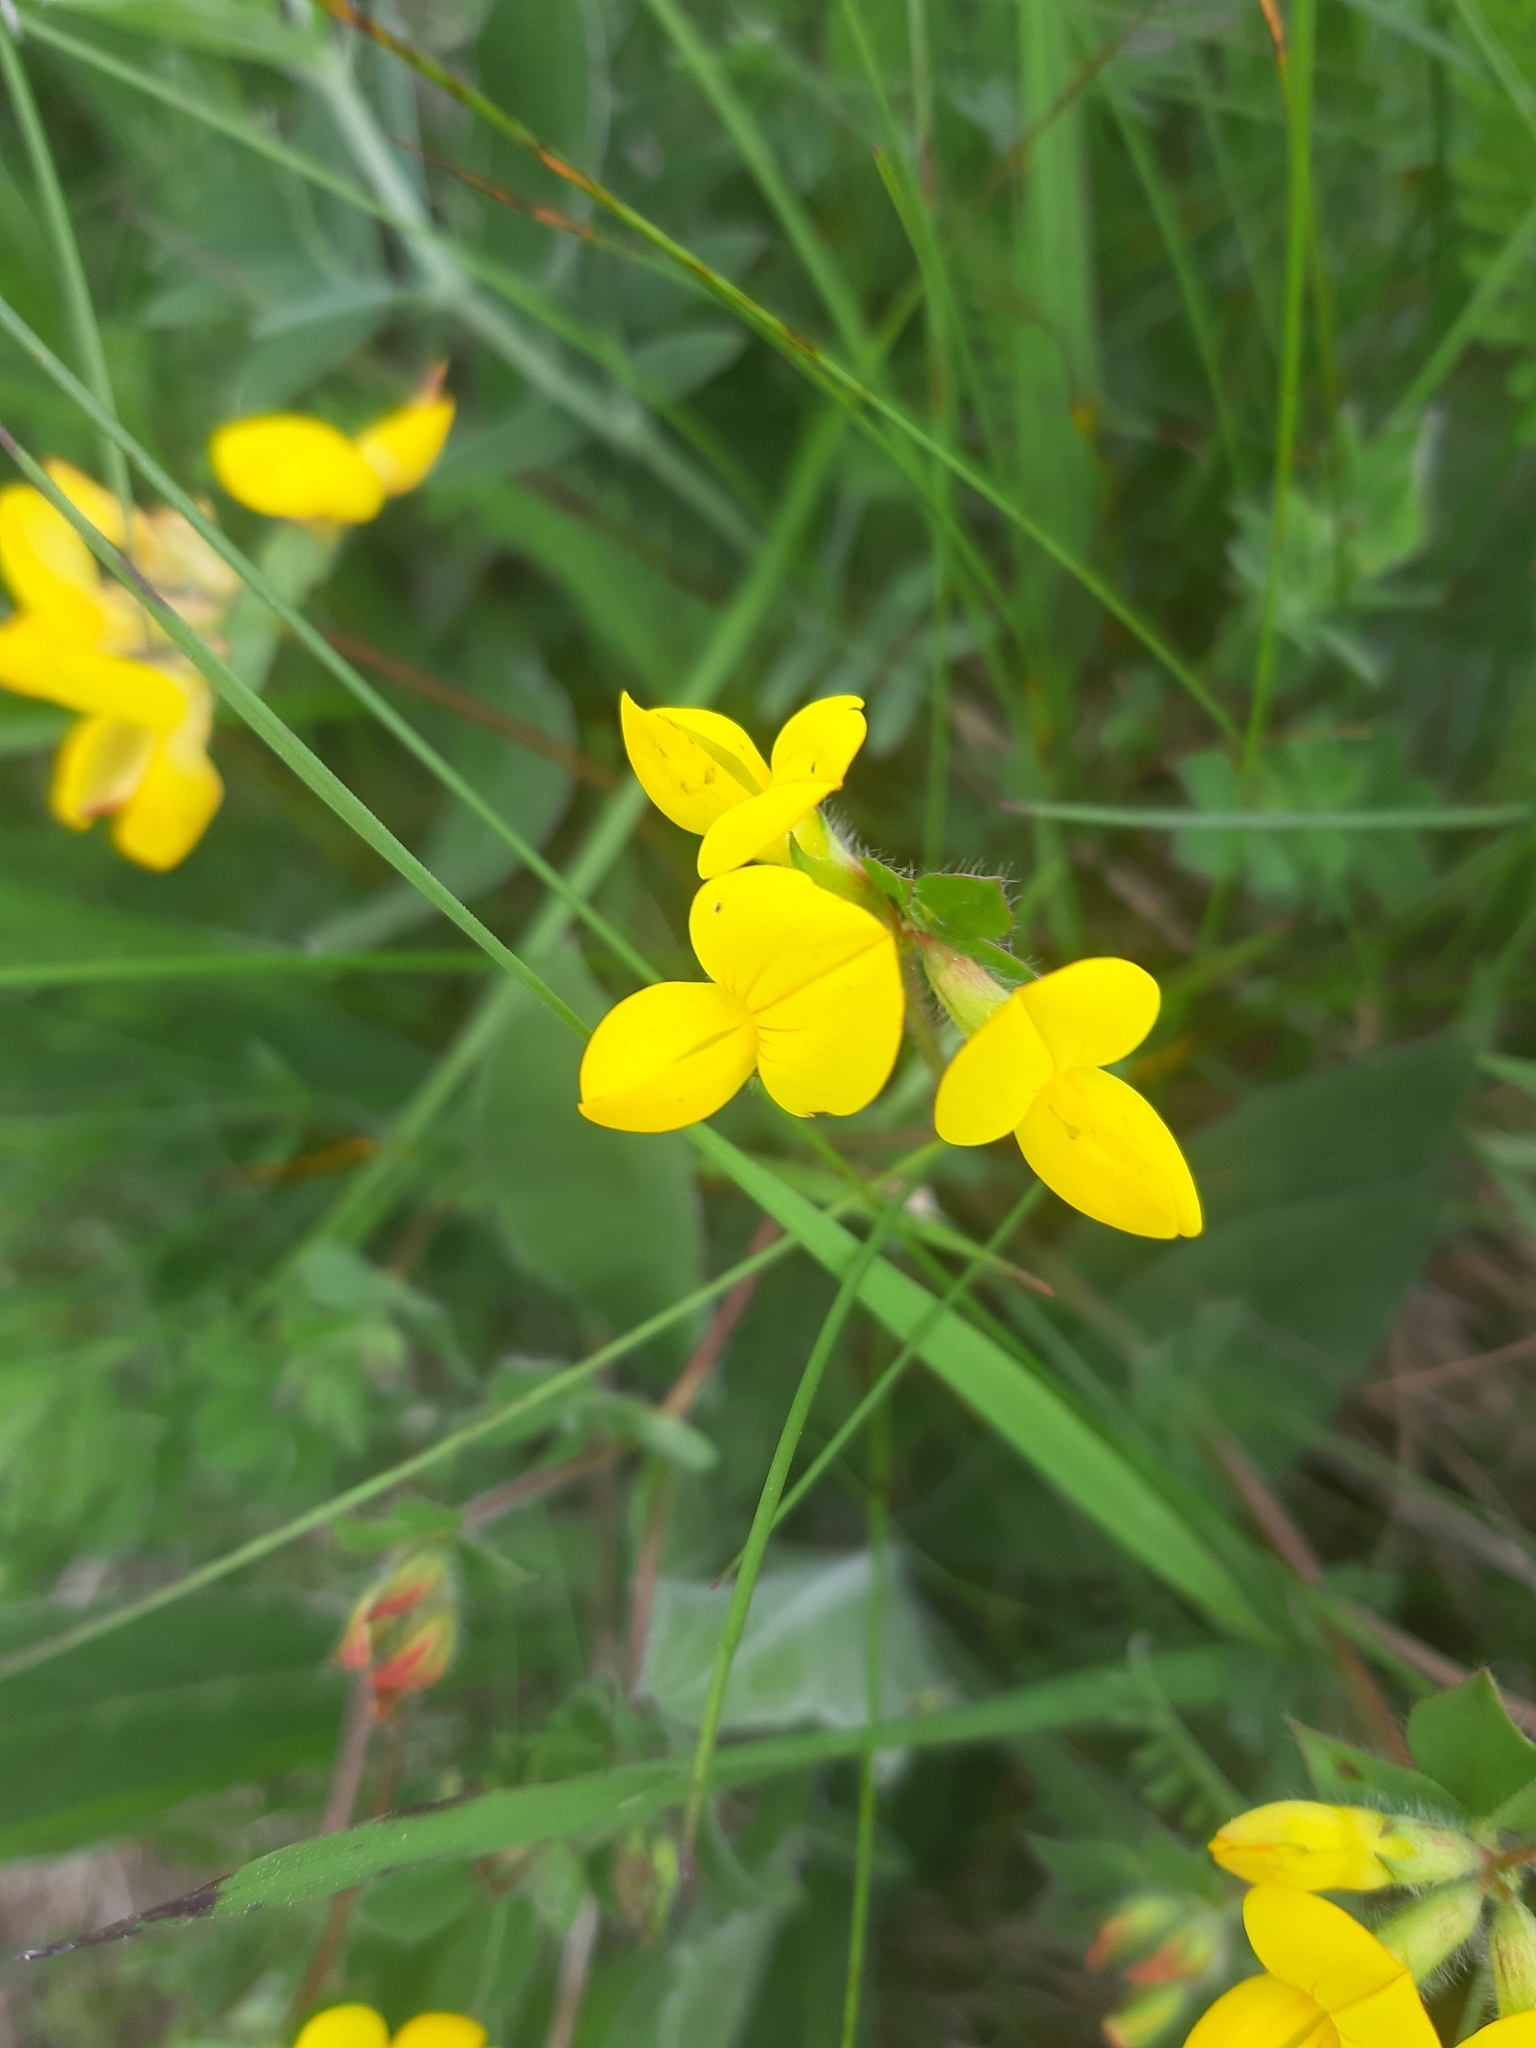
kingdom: Plantae
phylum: Tracheophyta
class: Magnoliopsida
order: Fabales
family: Fabaceae
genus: Lotus
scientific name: Lotus corniculatus
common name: Common bird's-foot-trefoil
